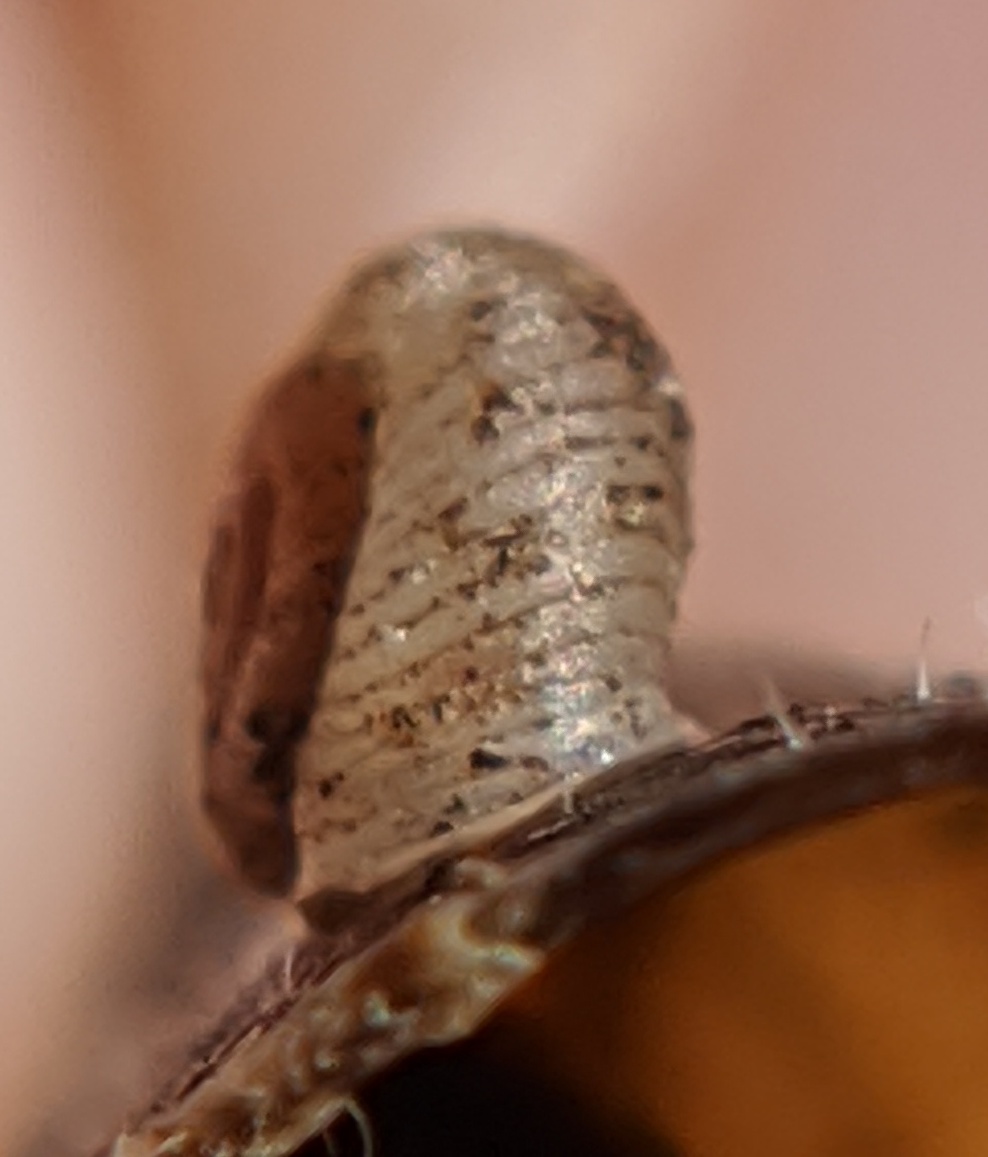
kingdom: Animalia
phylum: Mollusca
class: Gastropoda
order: Stylommatophora
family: Valloniidae
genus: Vallonia
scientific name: Vallonia costata
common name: Ribbed grass snail
